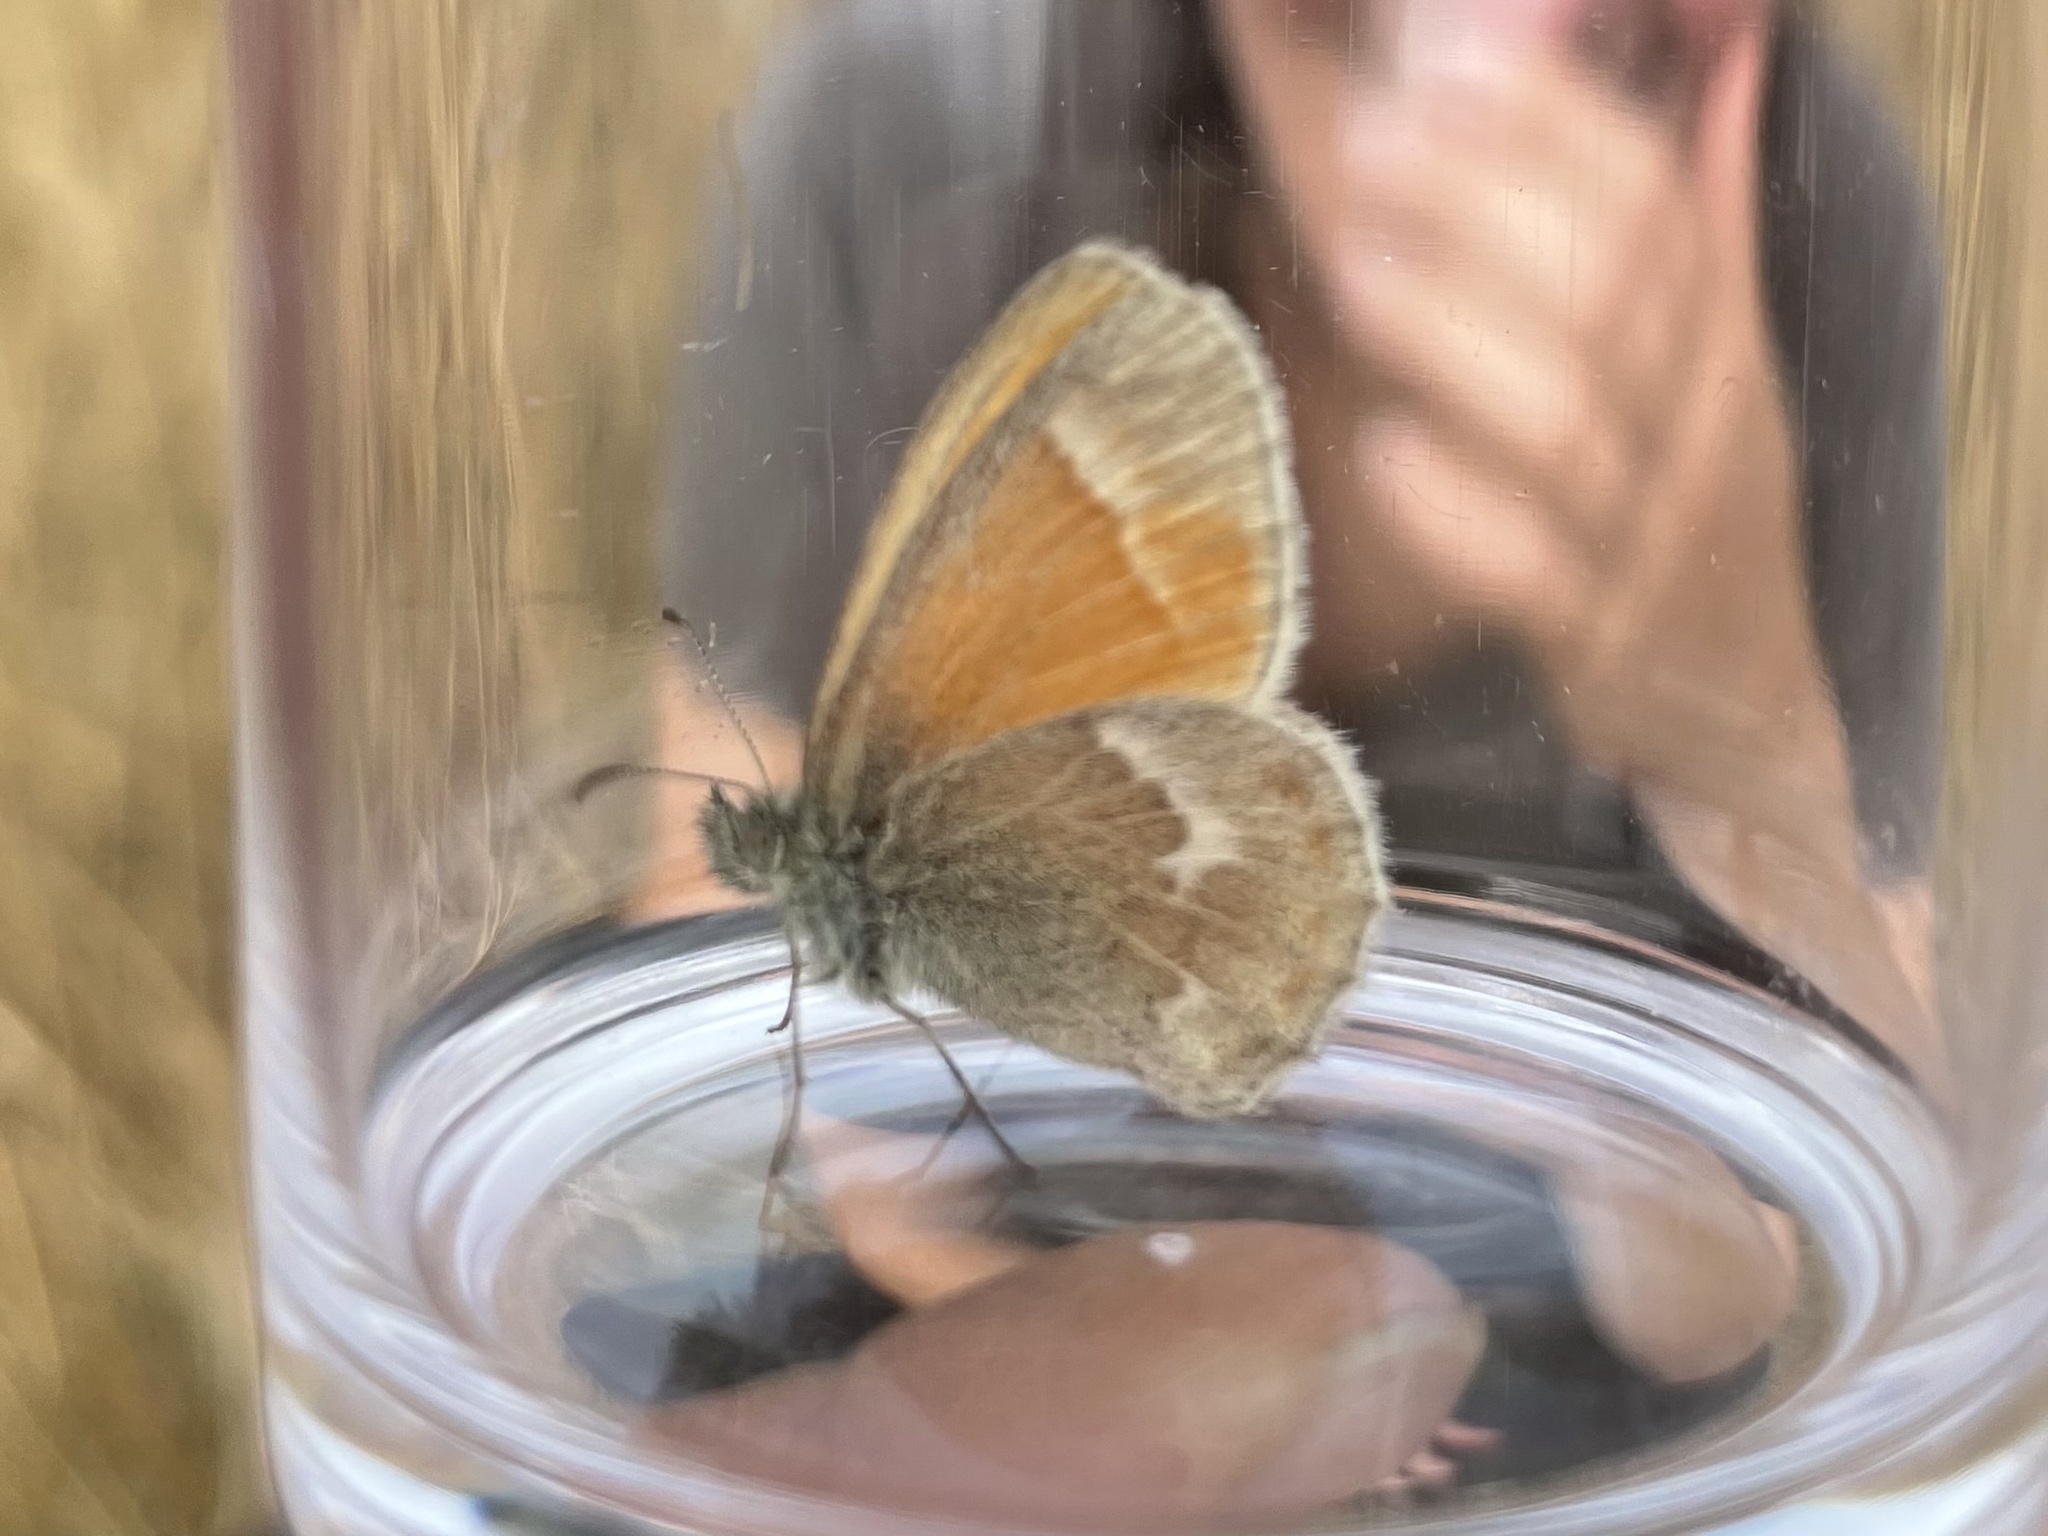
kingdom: Animalia
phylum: Arthropoda
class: Insecta
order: Lepidoptera
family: Nymphalidae
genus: Coenonympha
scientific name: Coenonympha california
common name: Common ringlet
